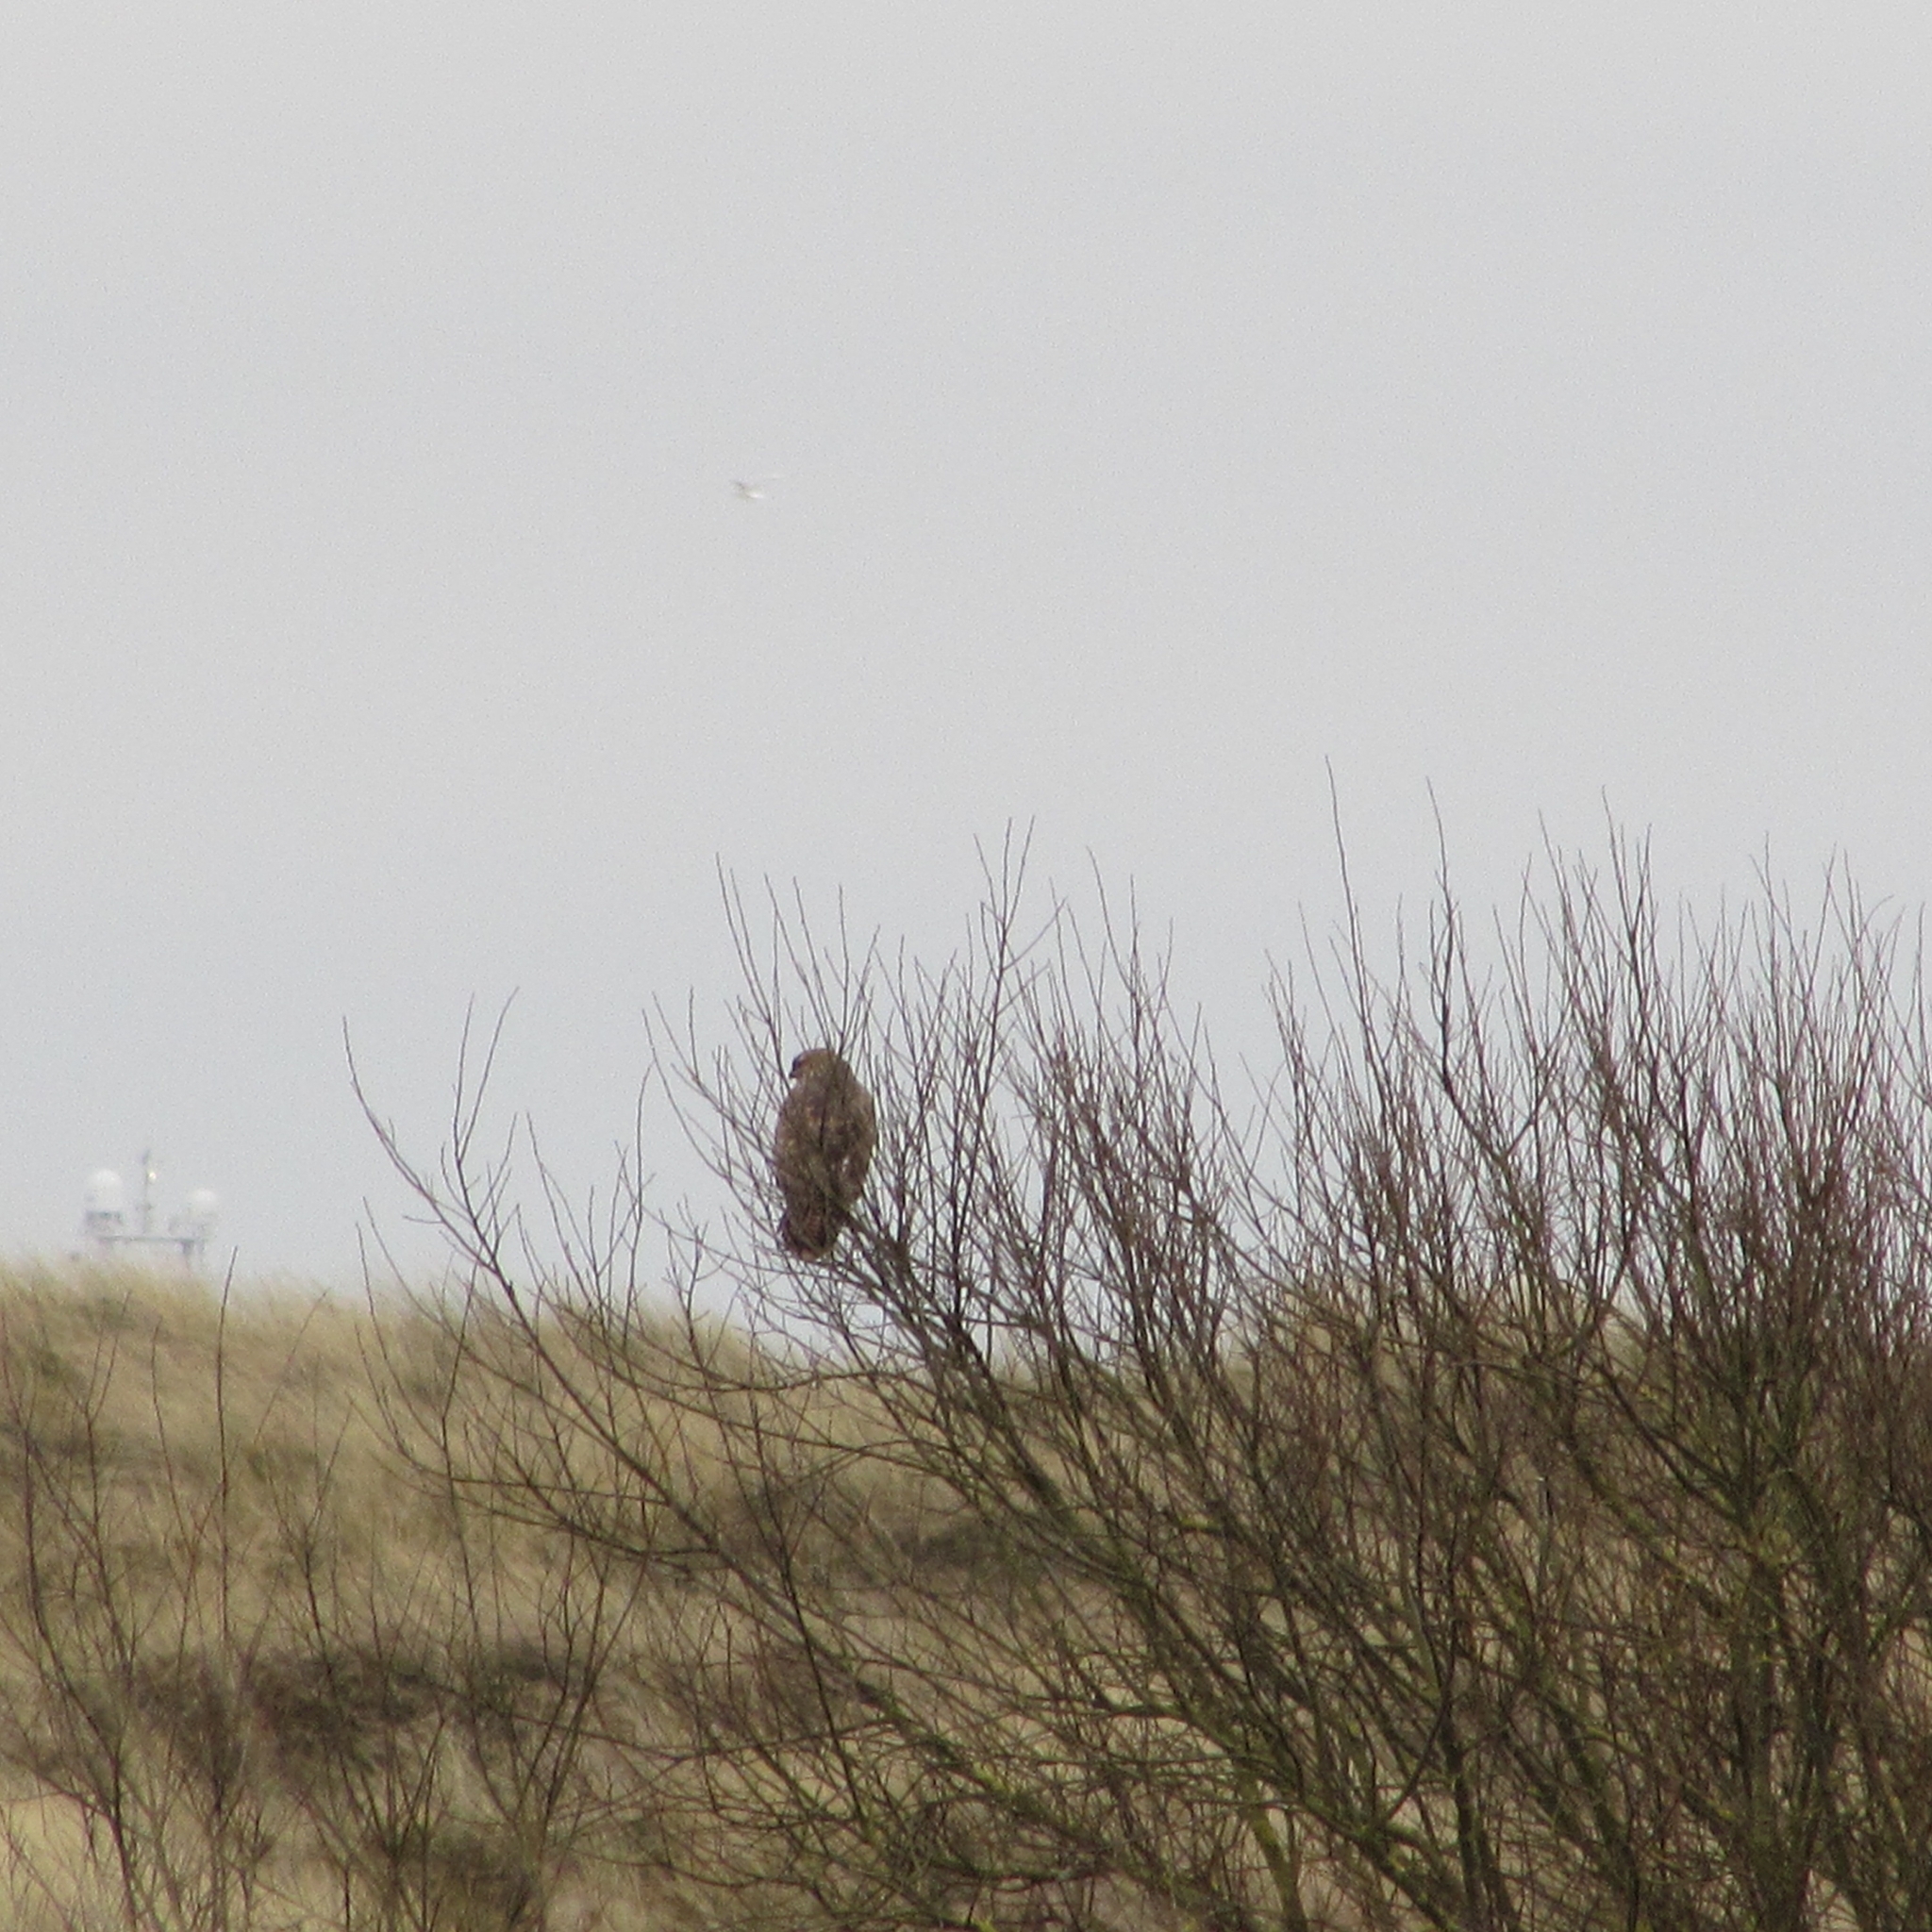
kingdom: Animalia
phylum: Chordata
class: Aves
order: Accipitriformes
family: Accipitridae
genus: Buteo
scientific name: Buteo buteo
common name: Common buzzard
